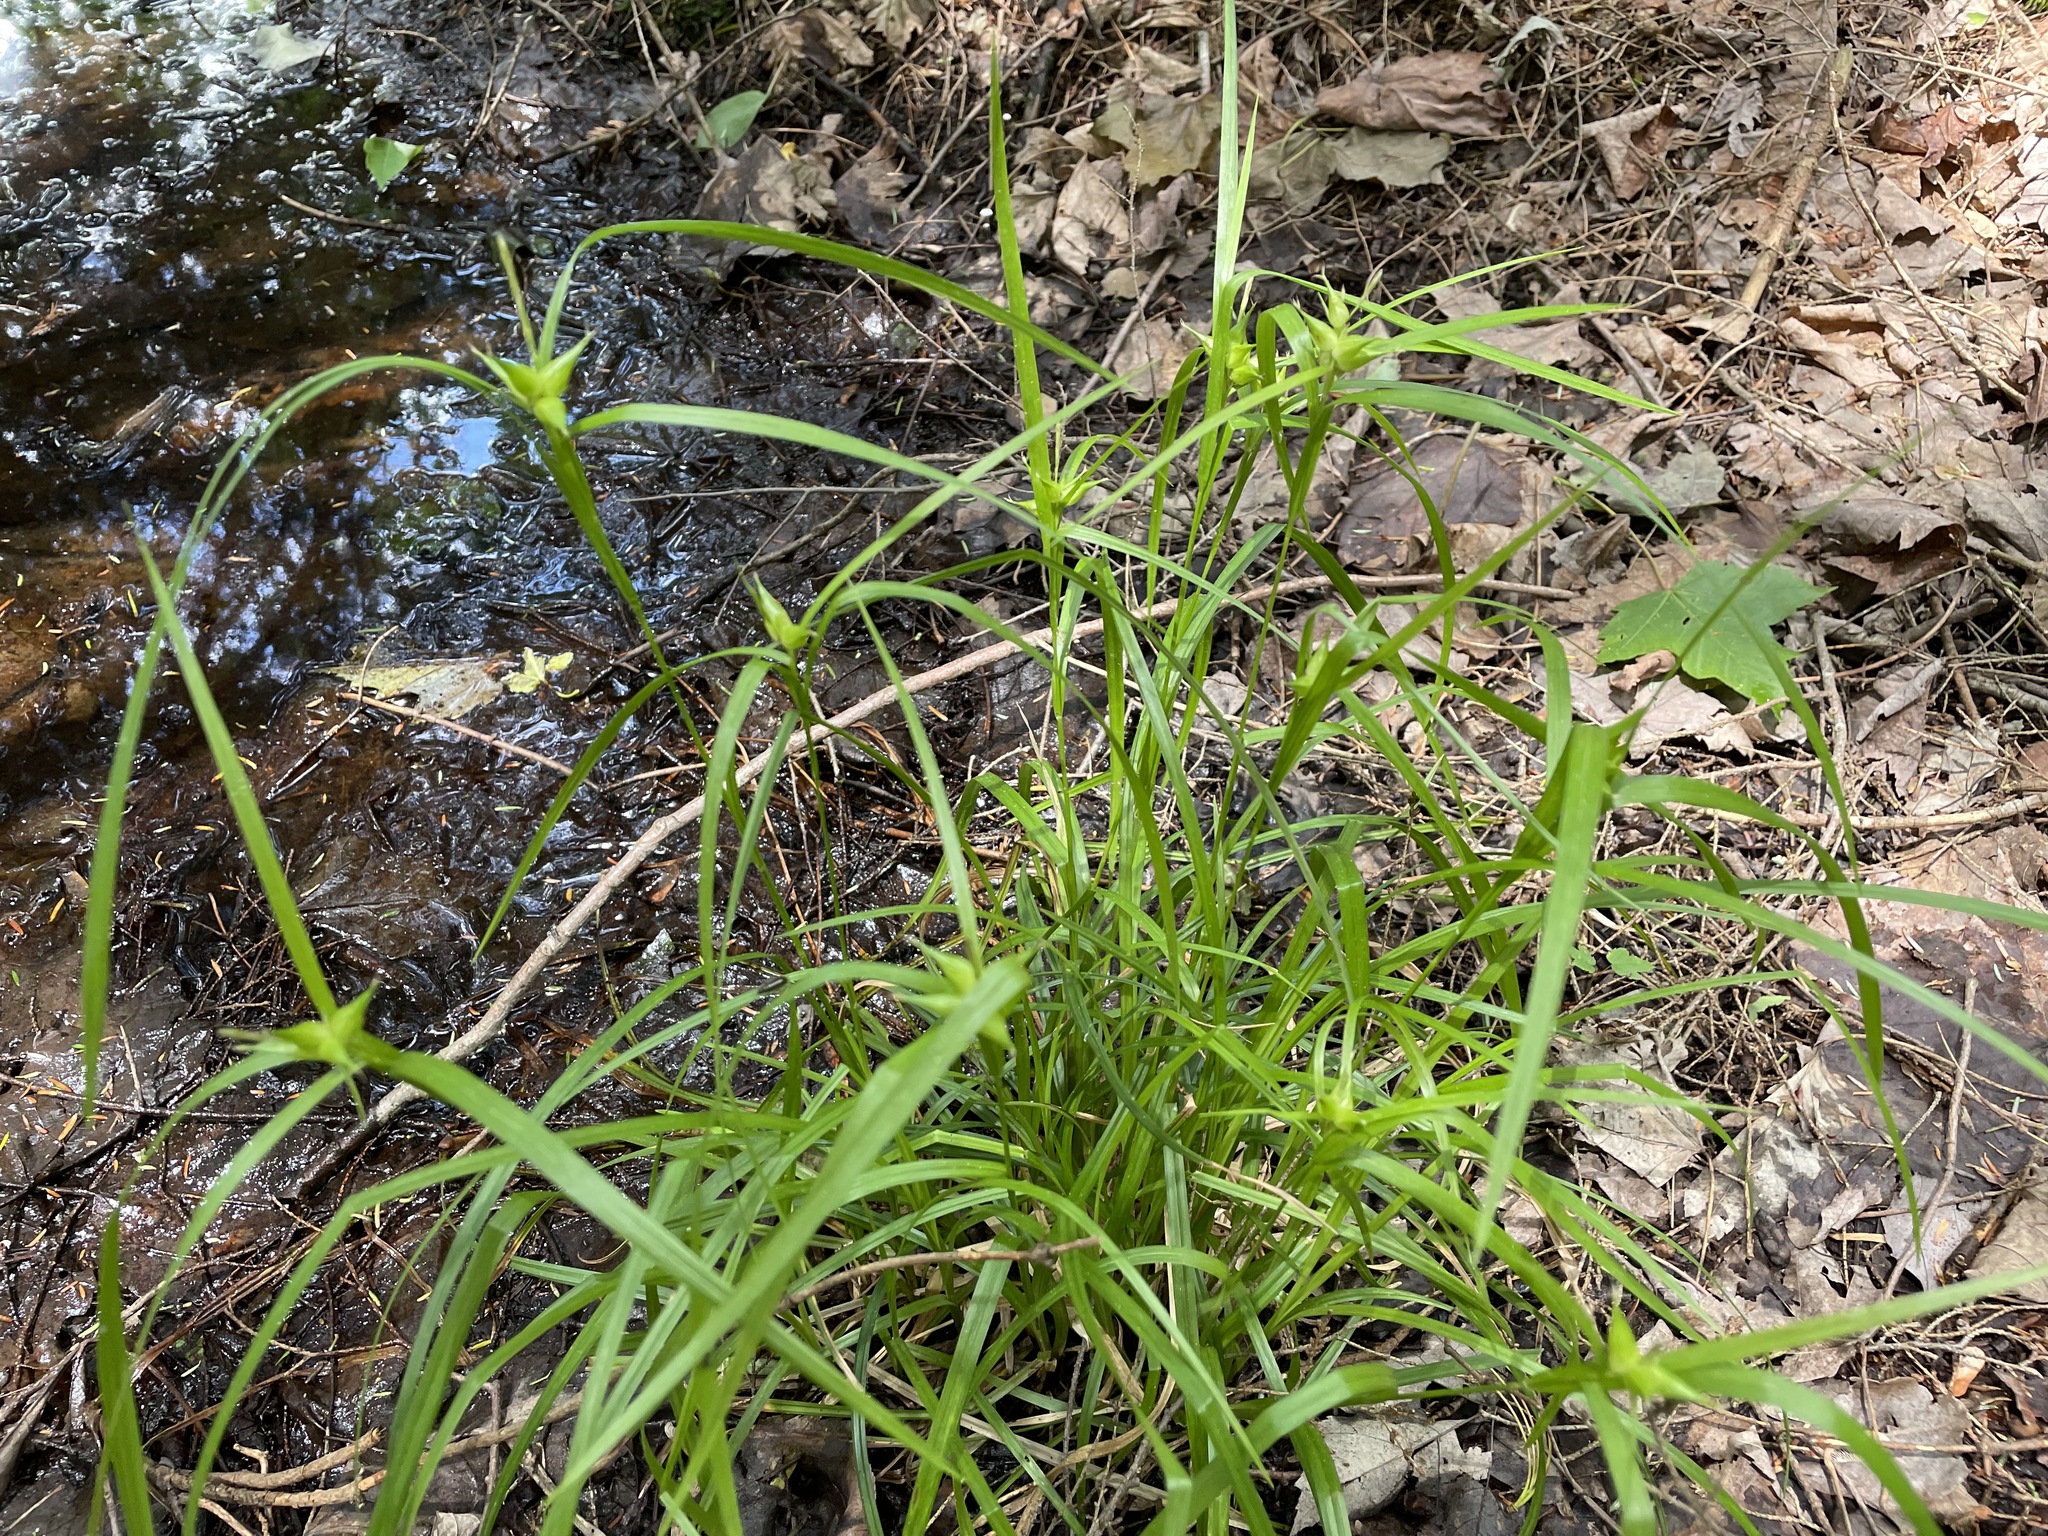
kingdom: Plantae
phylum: Tracheophyta
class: Liliopsida
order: Poales
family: Cyperaceae
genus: Carex
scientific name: Carex intumescens
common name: Greater bladder sedge
